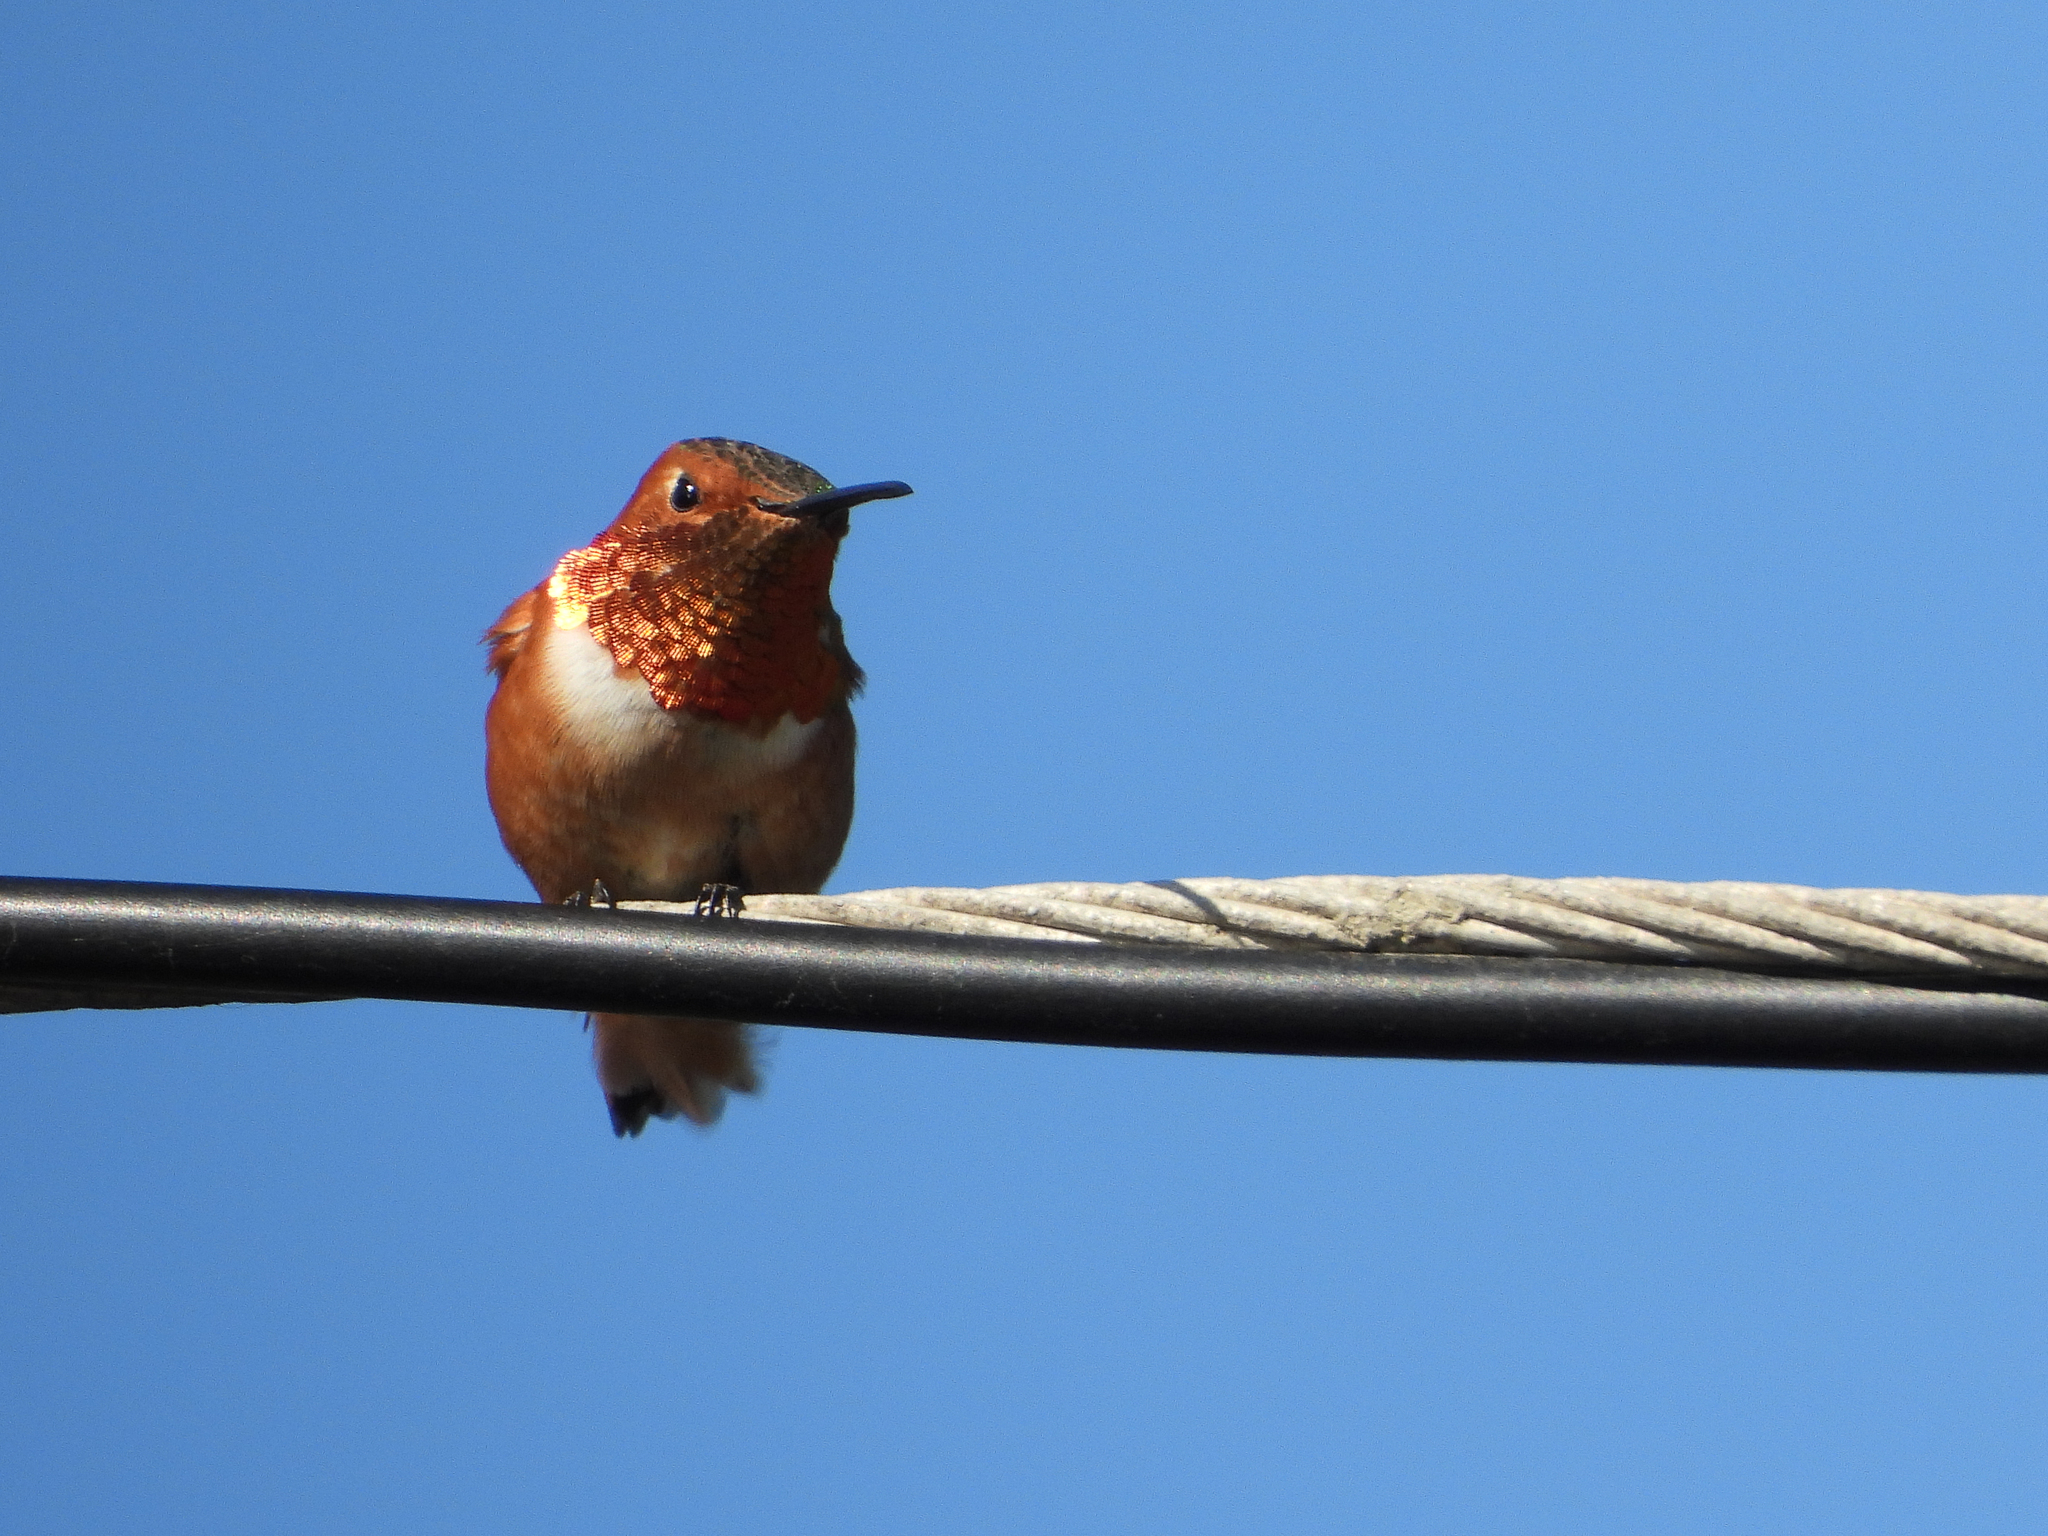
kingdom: Animalia
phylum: Chordata
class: Aves
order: Apodiformes
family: Trochilidae
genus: Selasphorus
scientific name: Selasphorus sasin
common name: Allen's hummingbird
